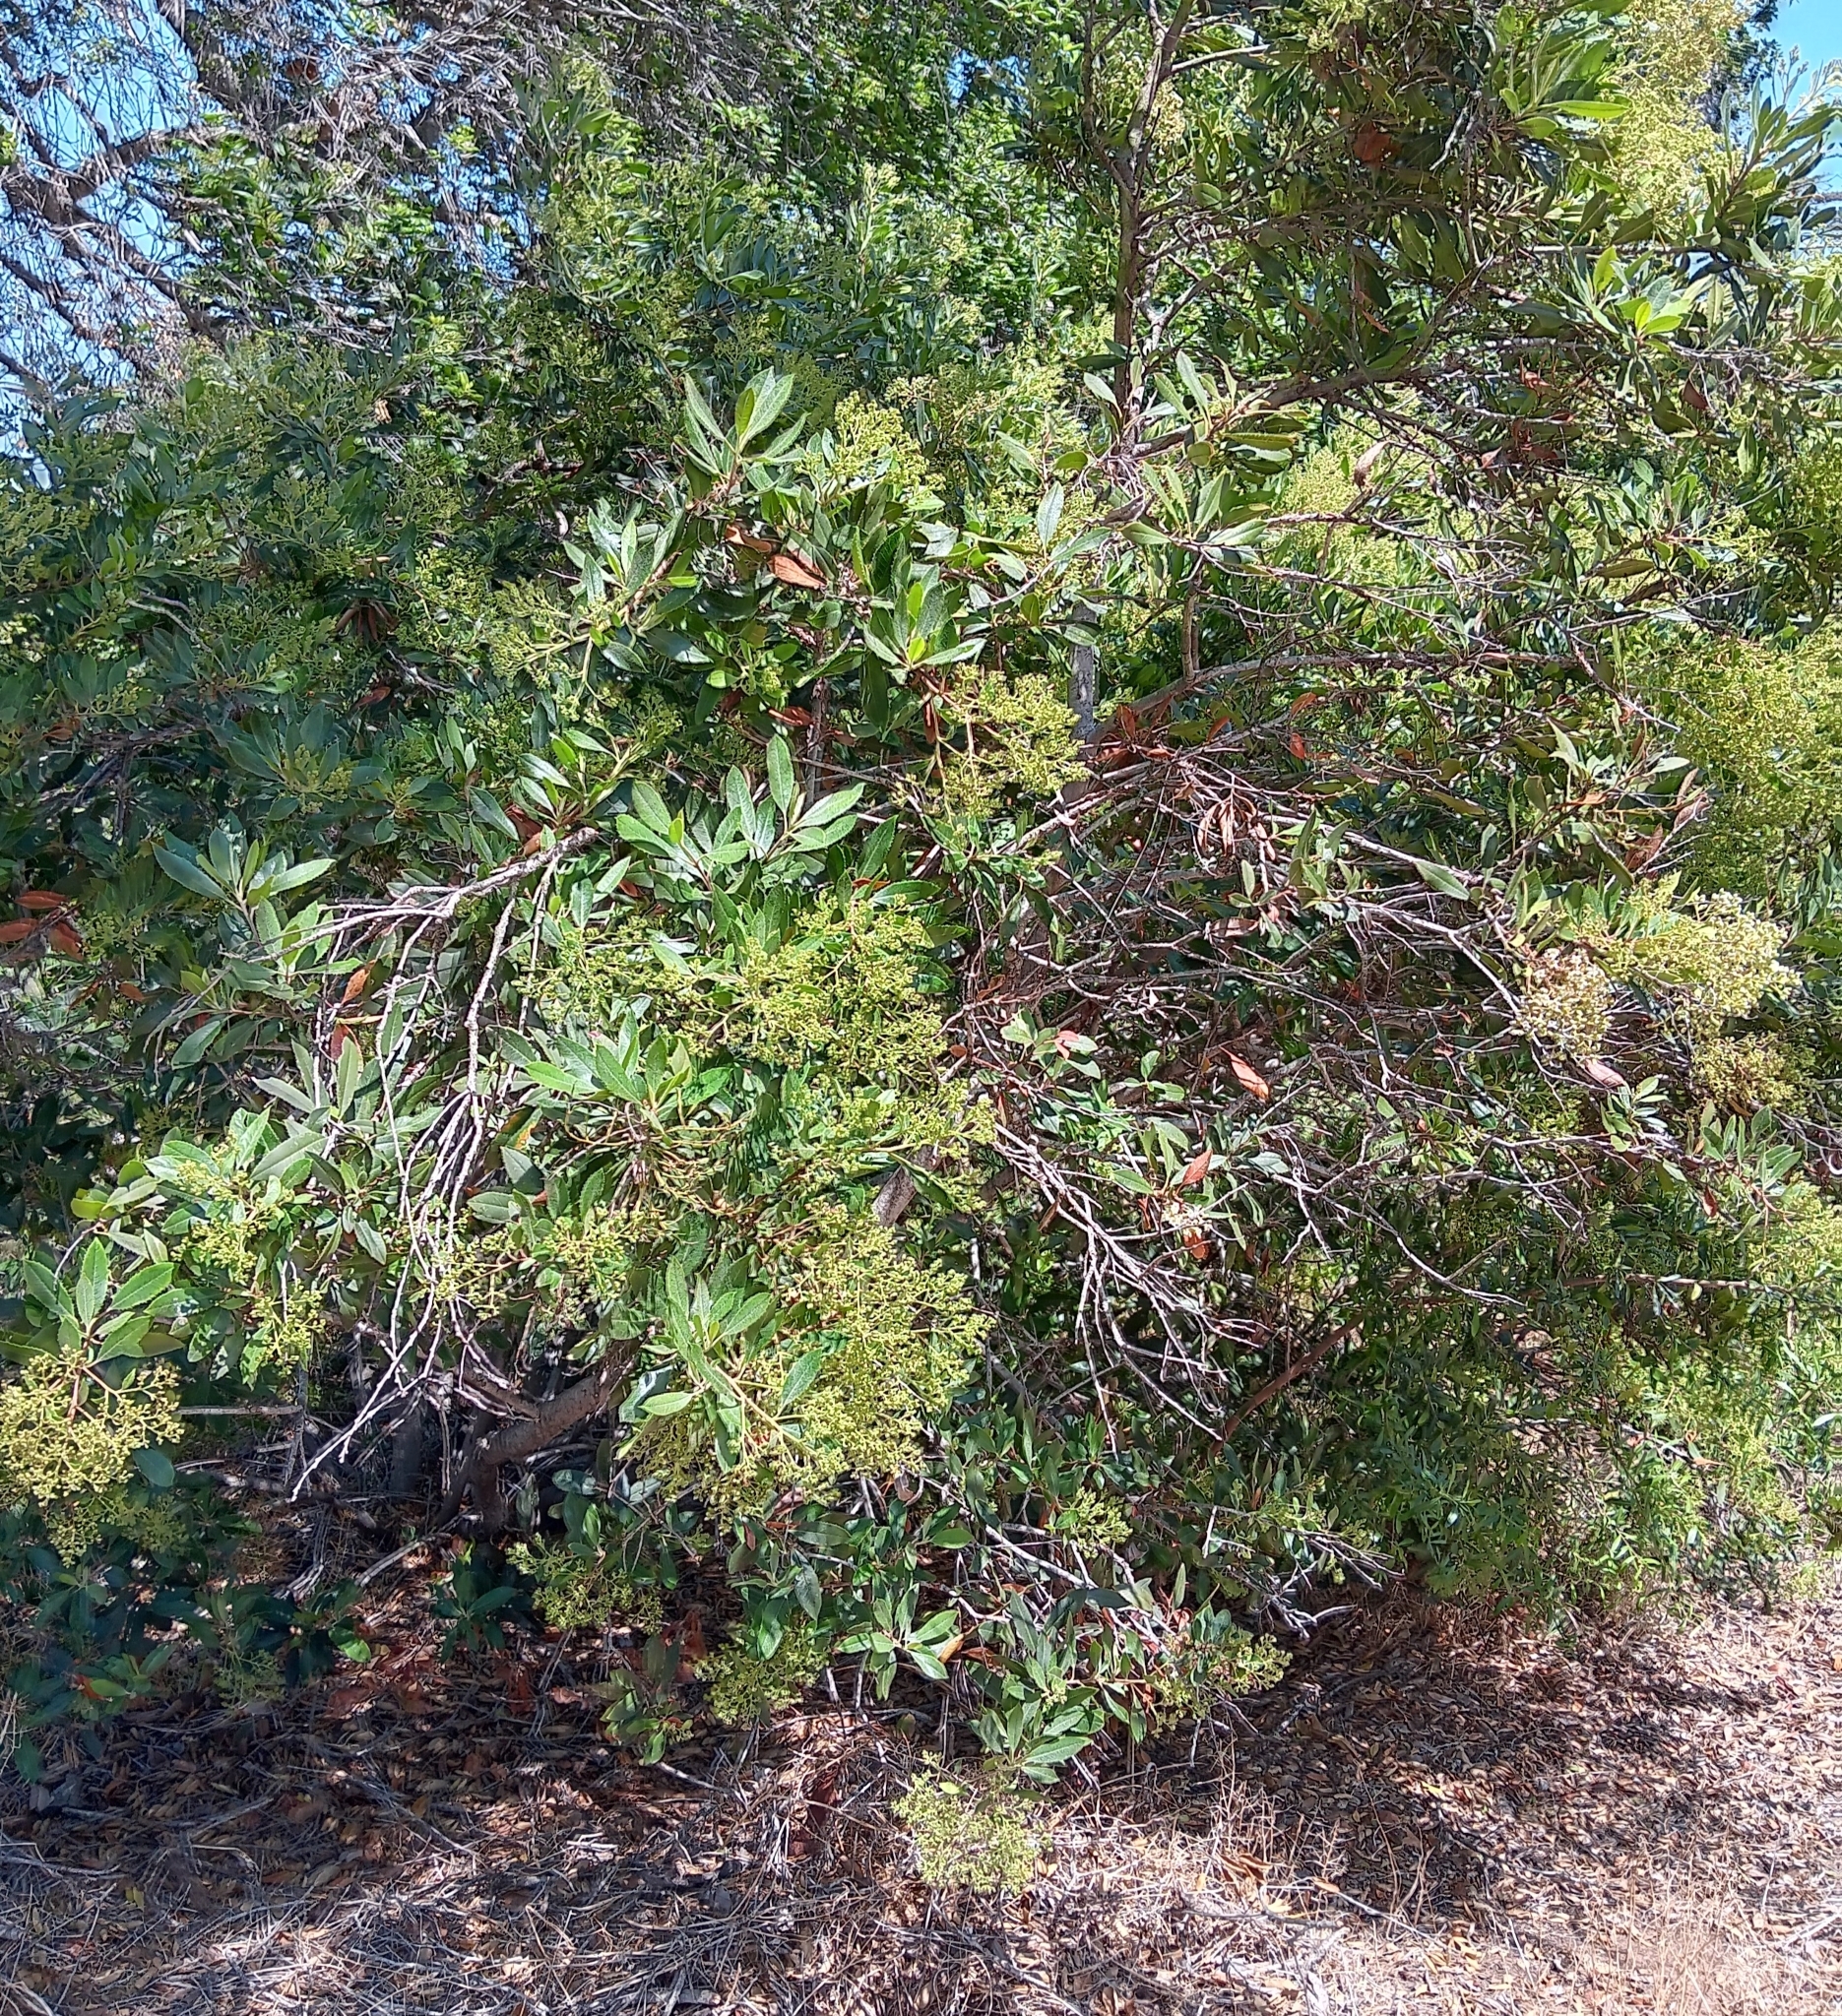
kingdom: Plantae
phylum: Tracheophyta
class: Magnoliopsida
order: Rosales
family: Rosaceae
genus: Heteromeles
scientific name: Heteromeles arbutifolia
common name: California-holly
